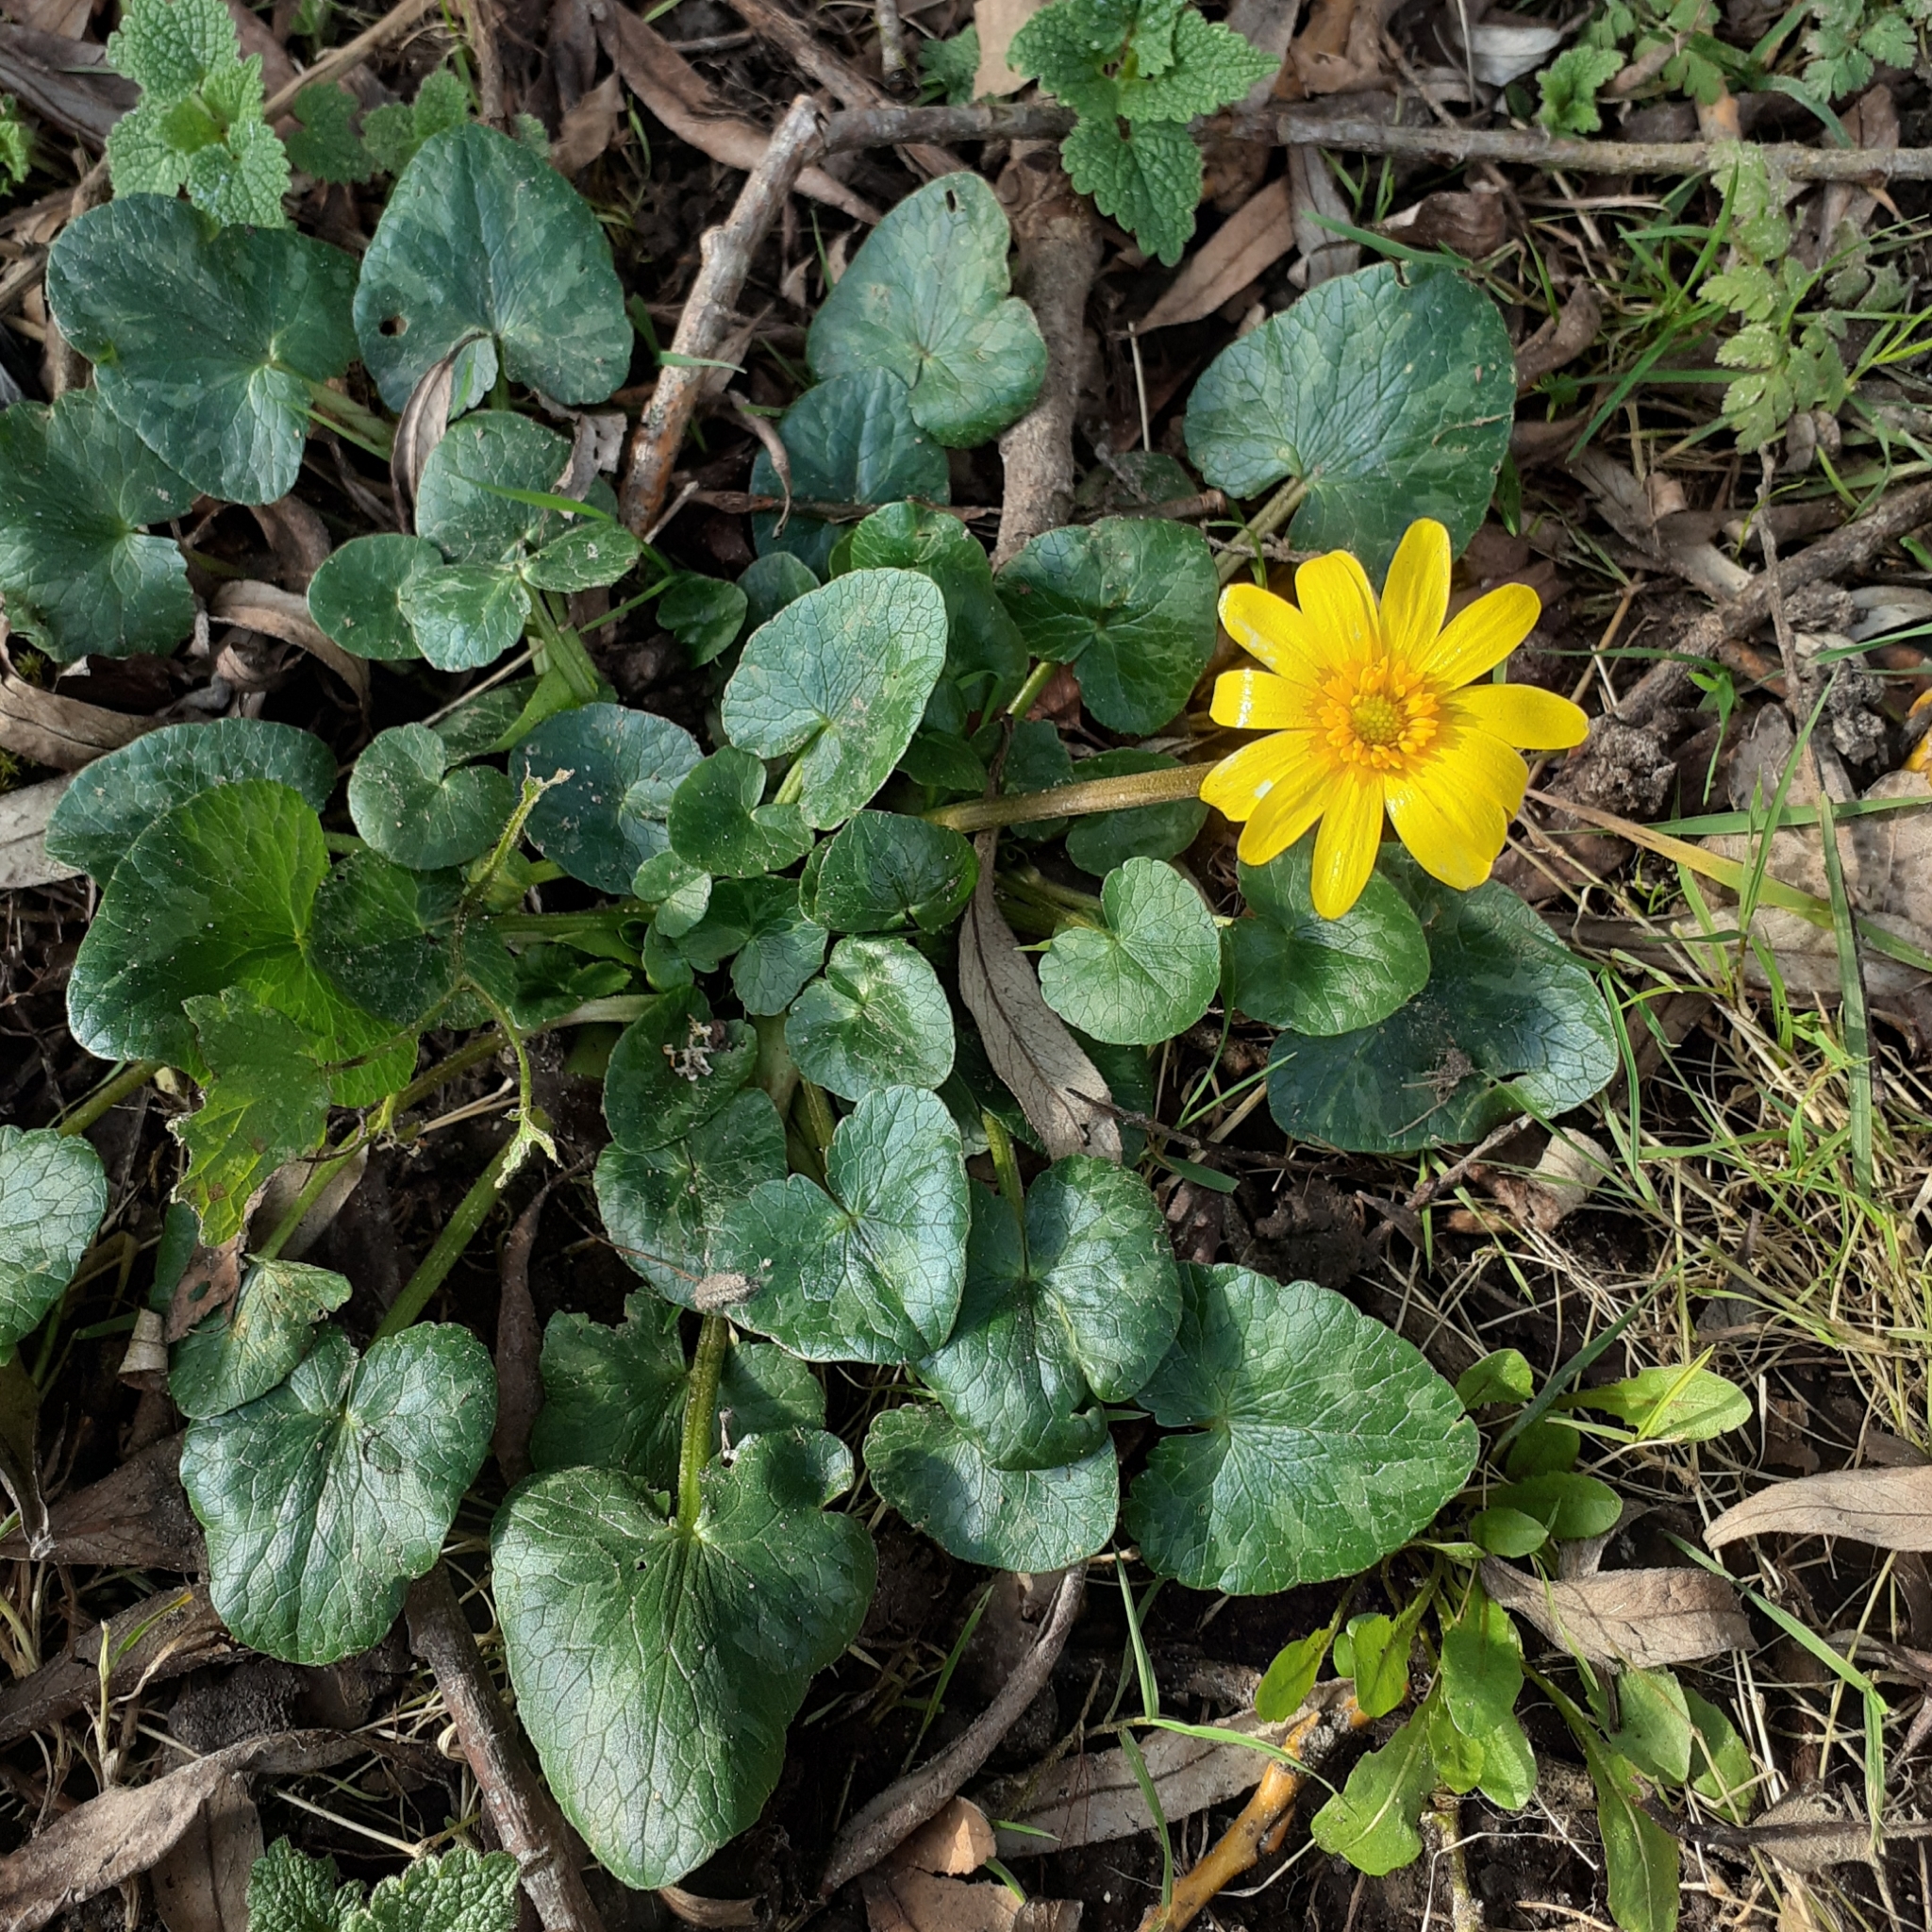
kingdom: Plantae
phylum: Tracheophyta
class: Magnoliopsida
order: Ranunculales
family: Ranunculaceae
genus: Ficaria
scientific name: Ficaria verna
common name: Lesser celandine
